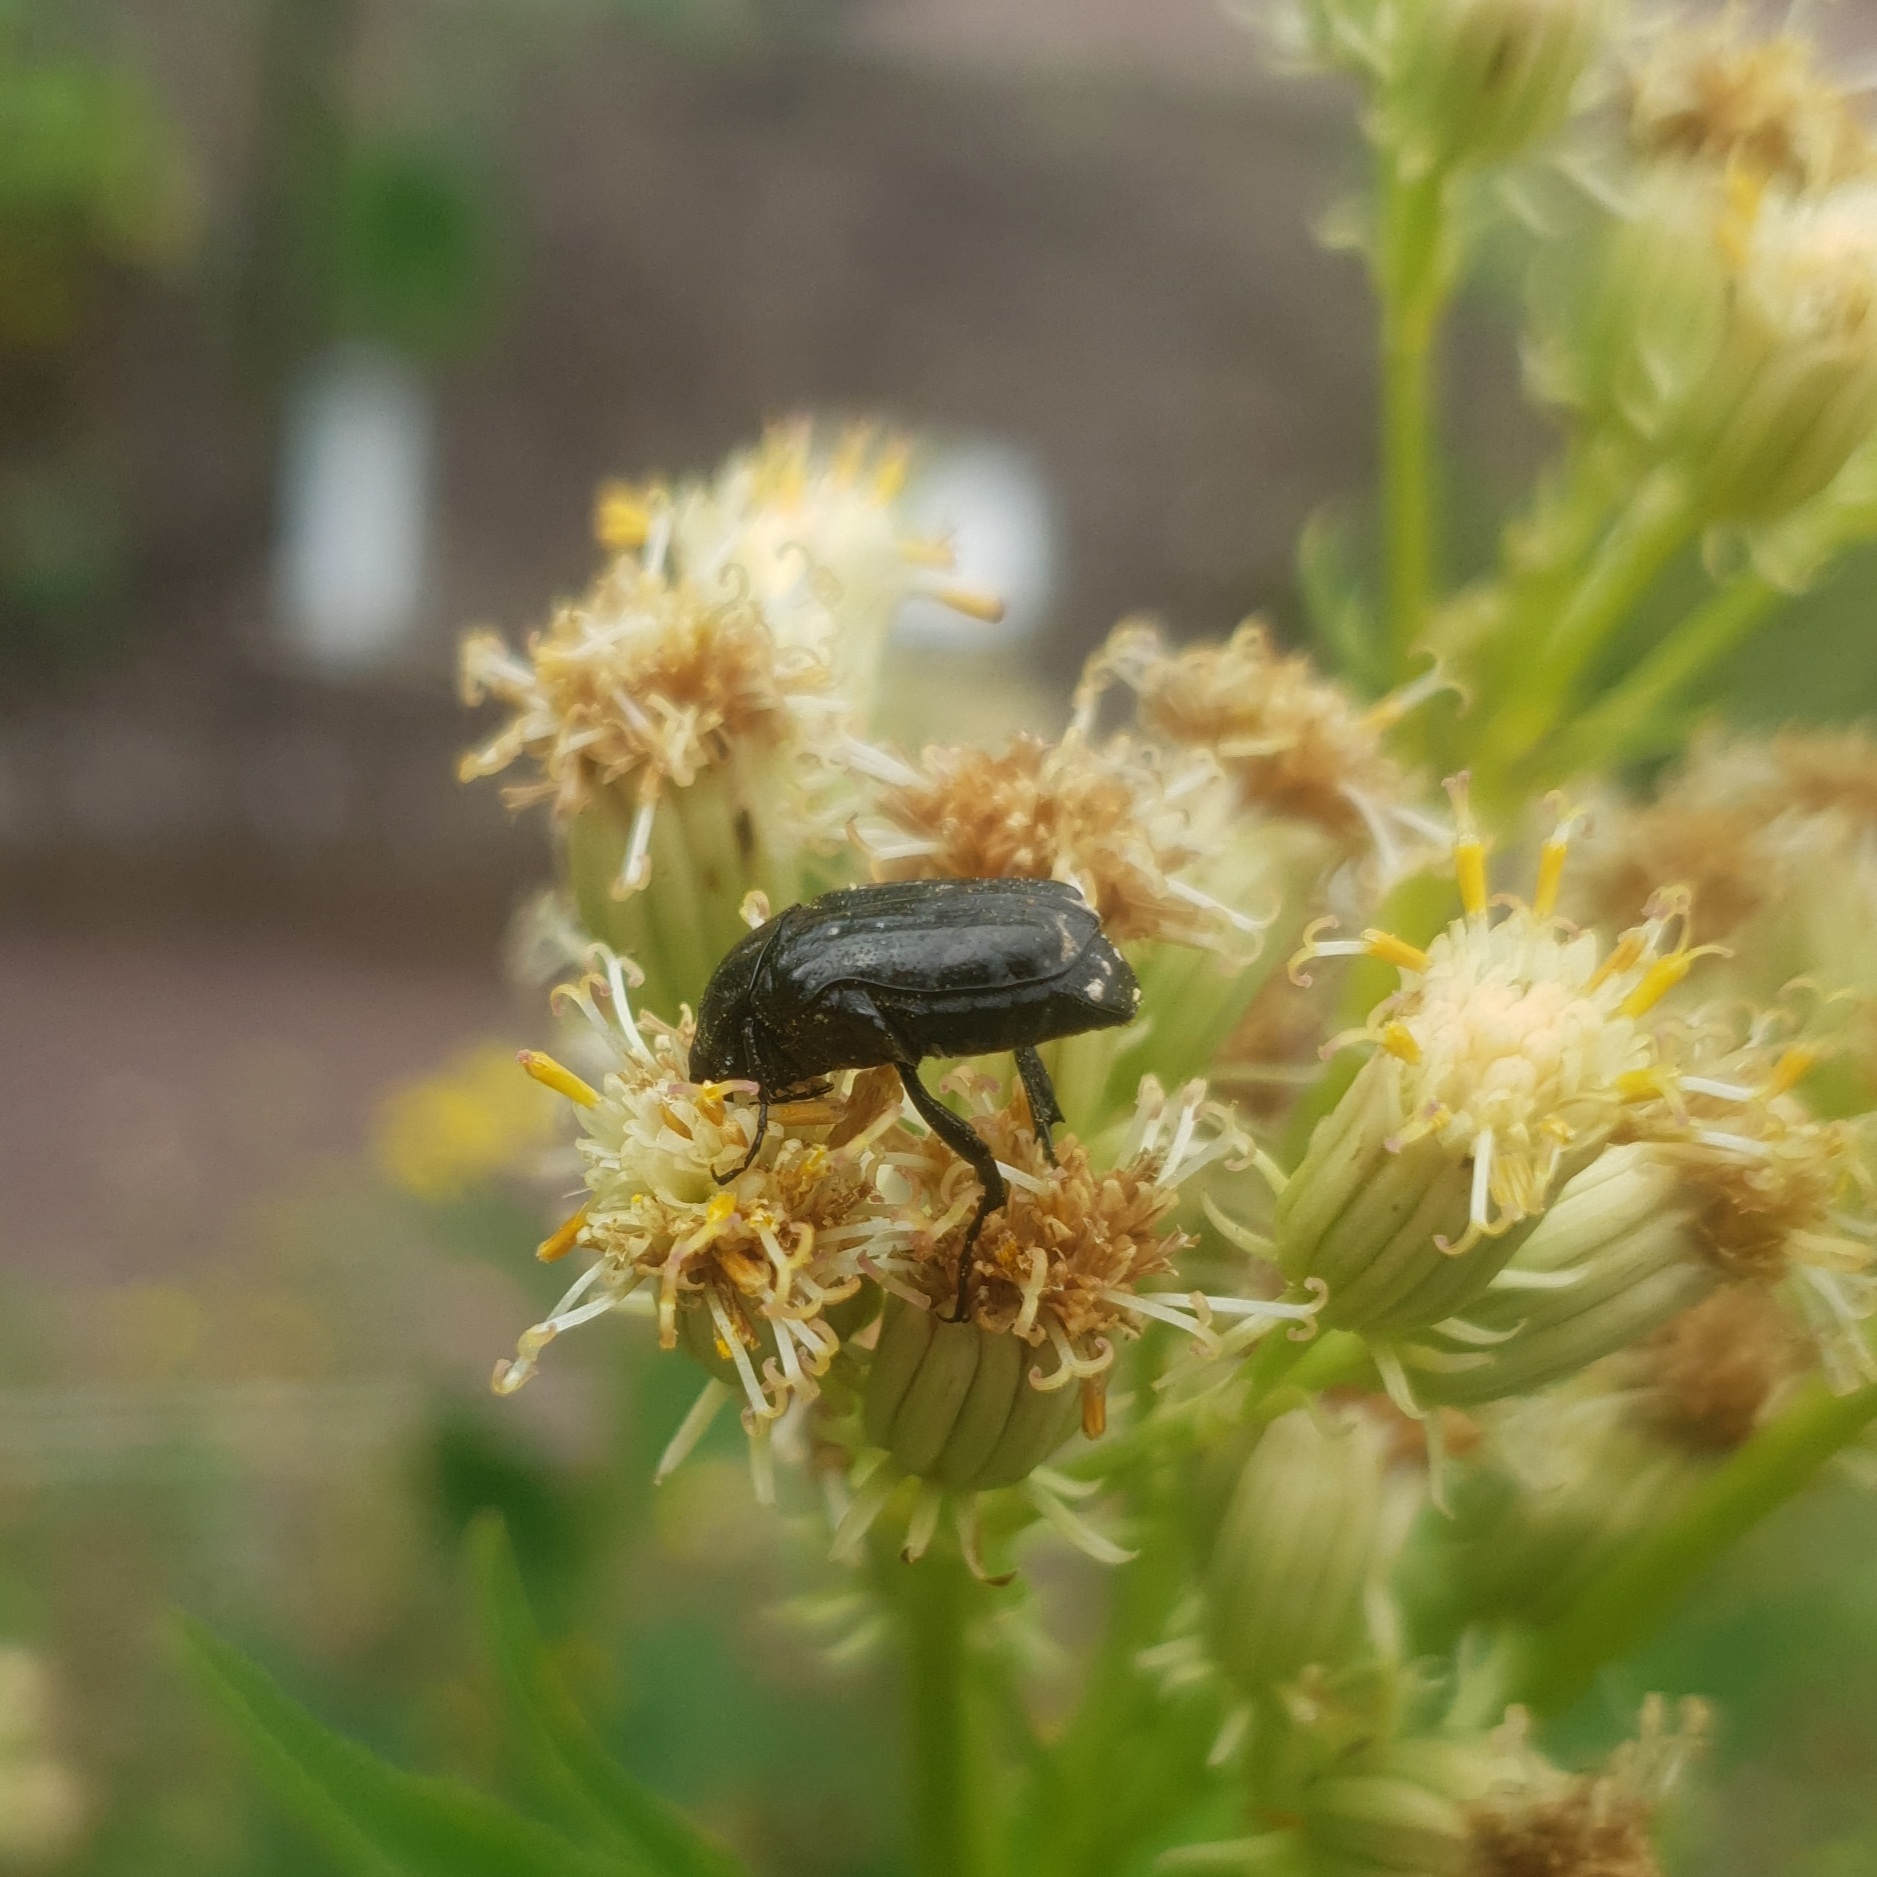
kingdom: Animalia
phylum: Arthropoda
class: Insecta
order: Coleoptera
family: Scarabaeidae
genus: Oxythyrea
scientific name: Oxythyrea funesta
